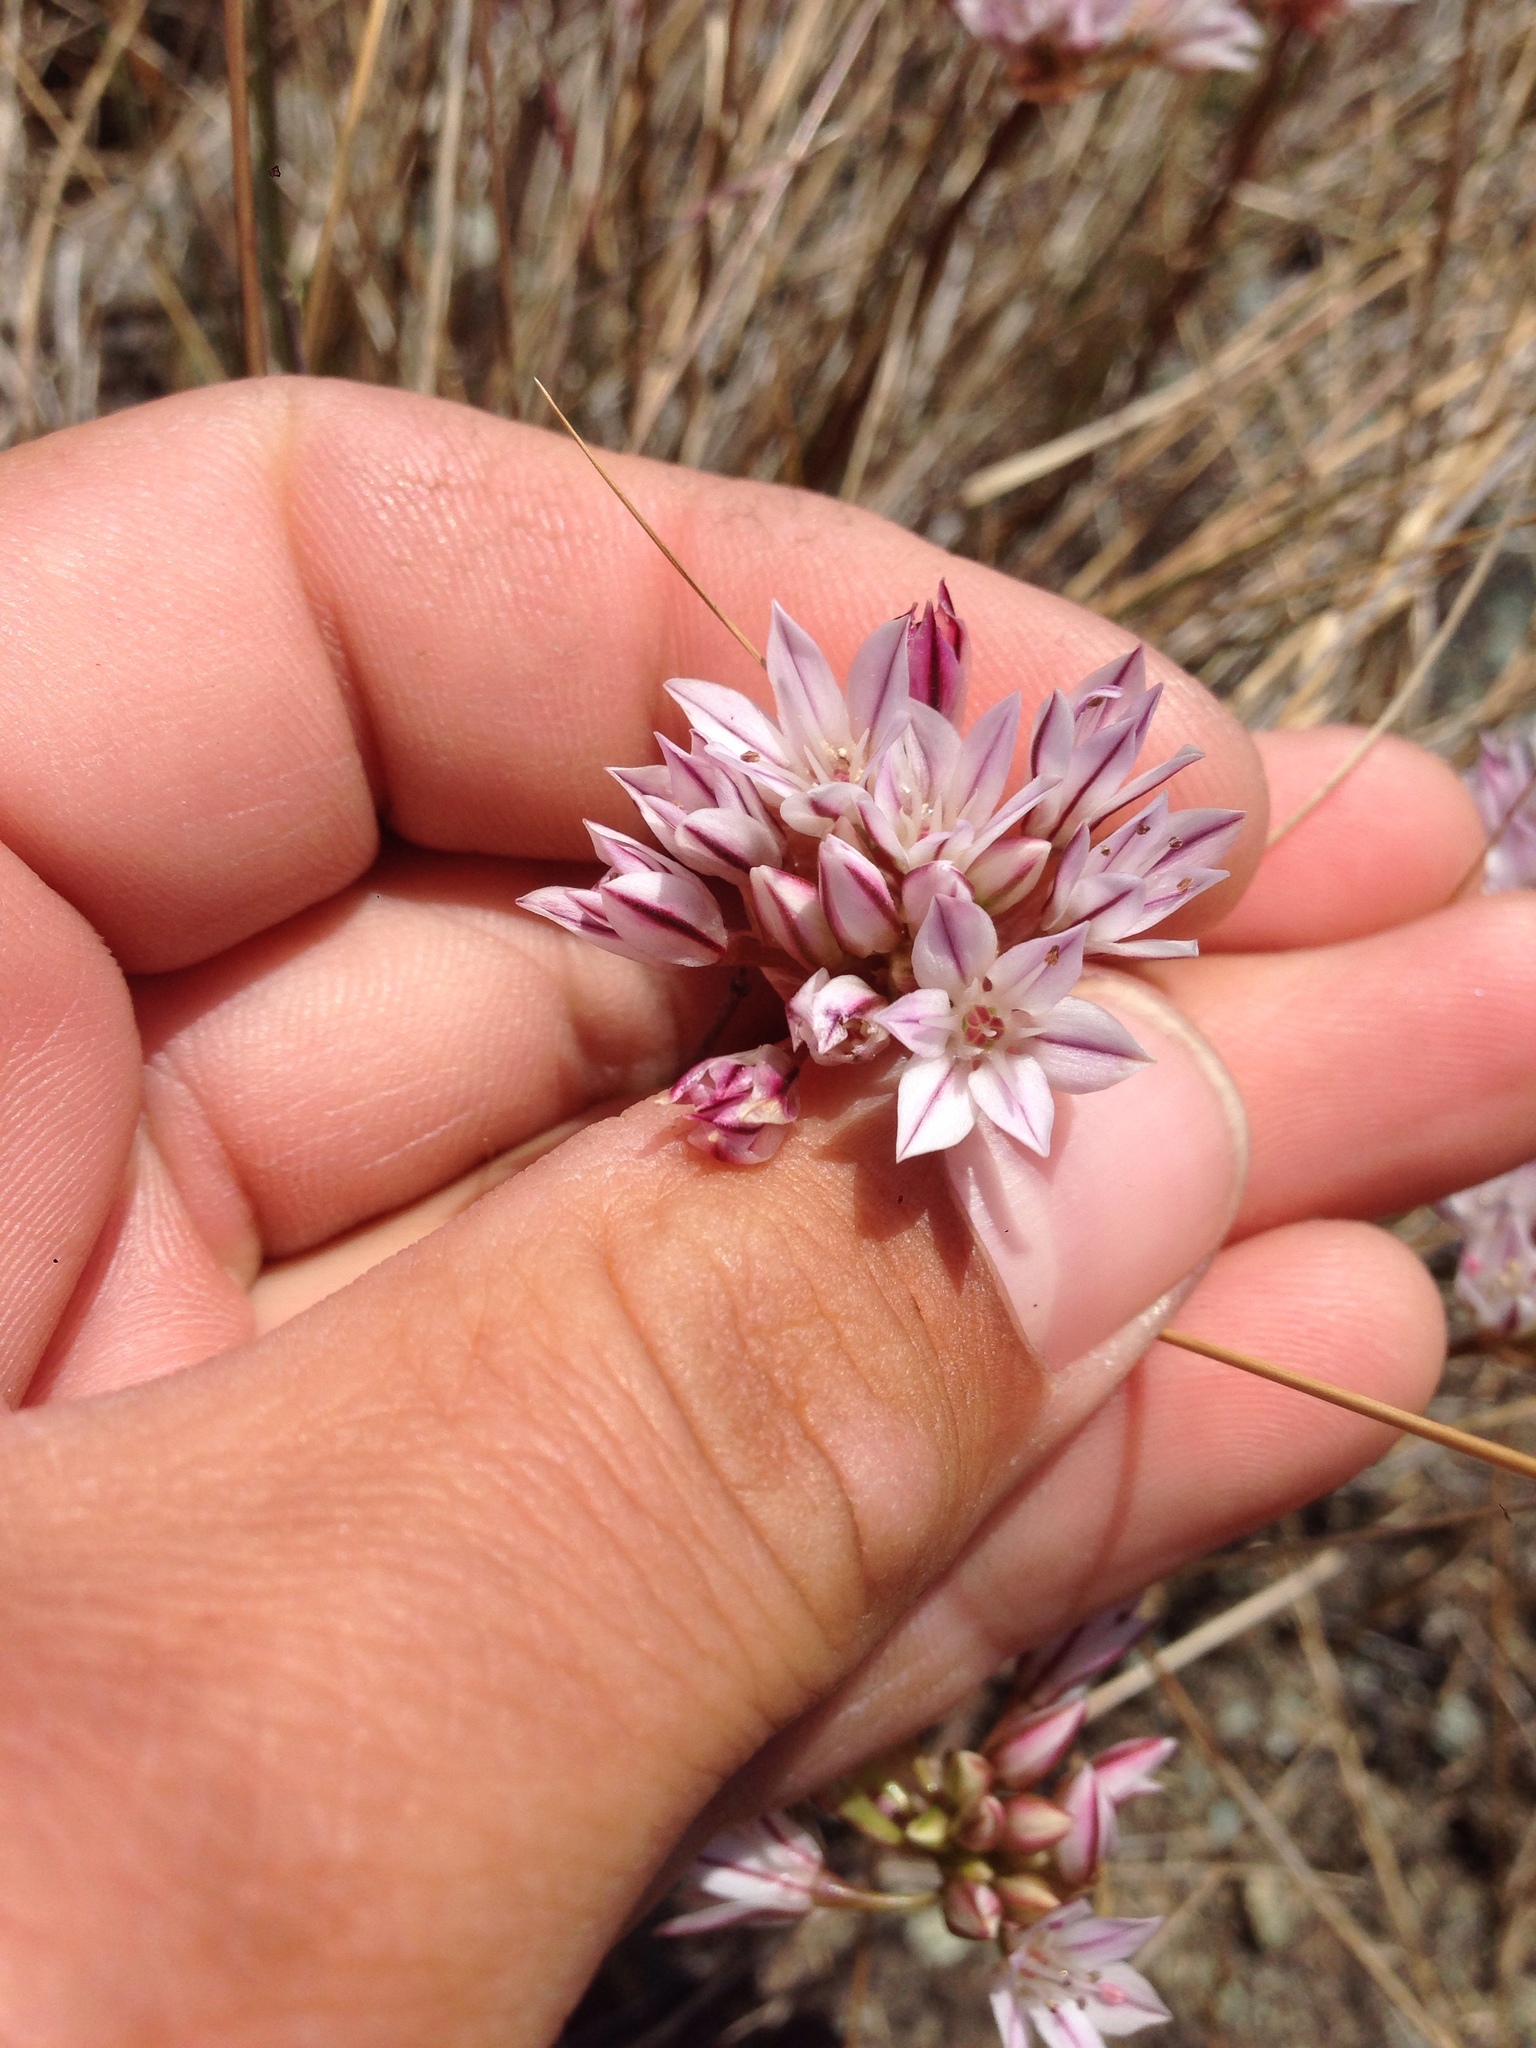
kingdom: Plantae
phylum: Tracheophyta
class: Liliopsida
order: Asparagales
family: Amaryllidaceae
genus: Allium
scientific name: Allium lacunosum
